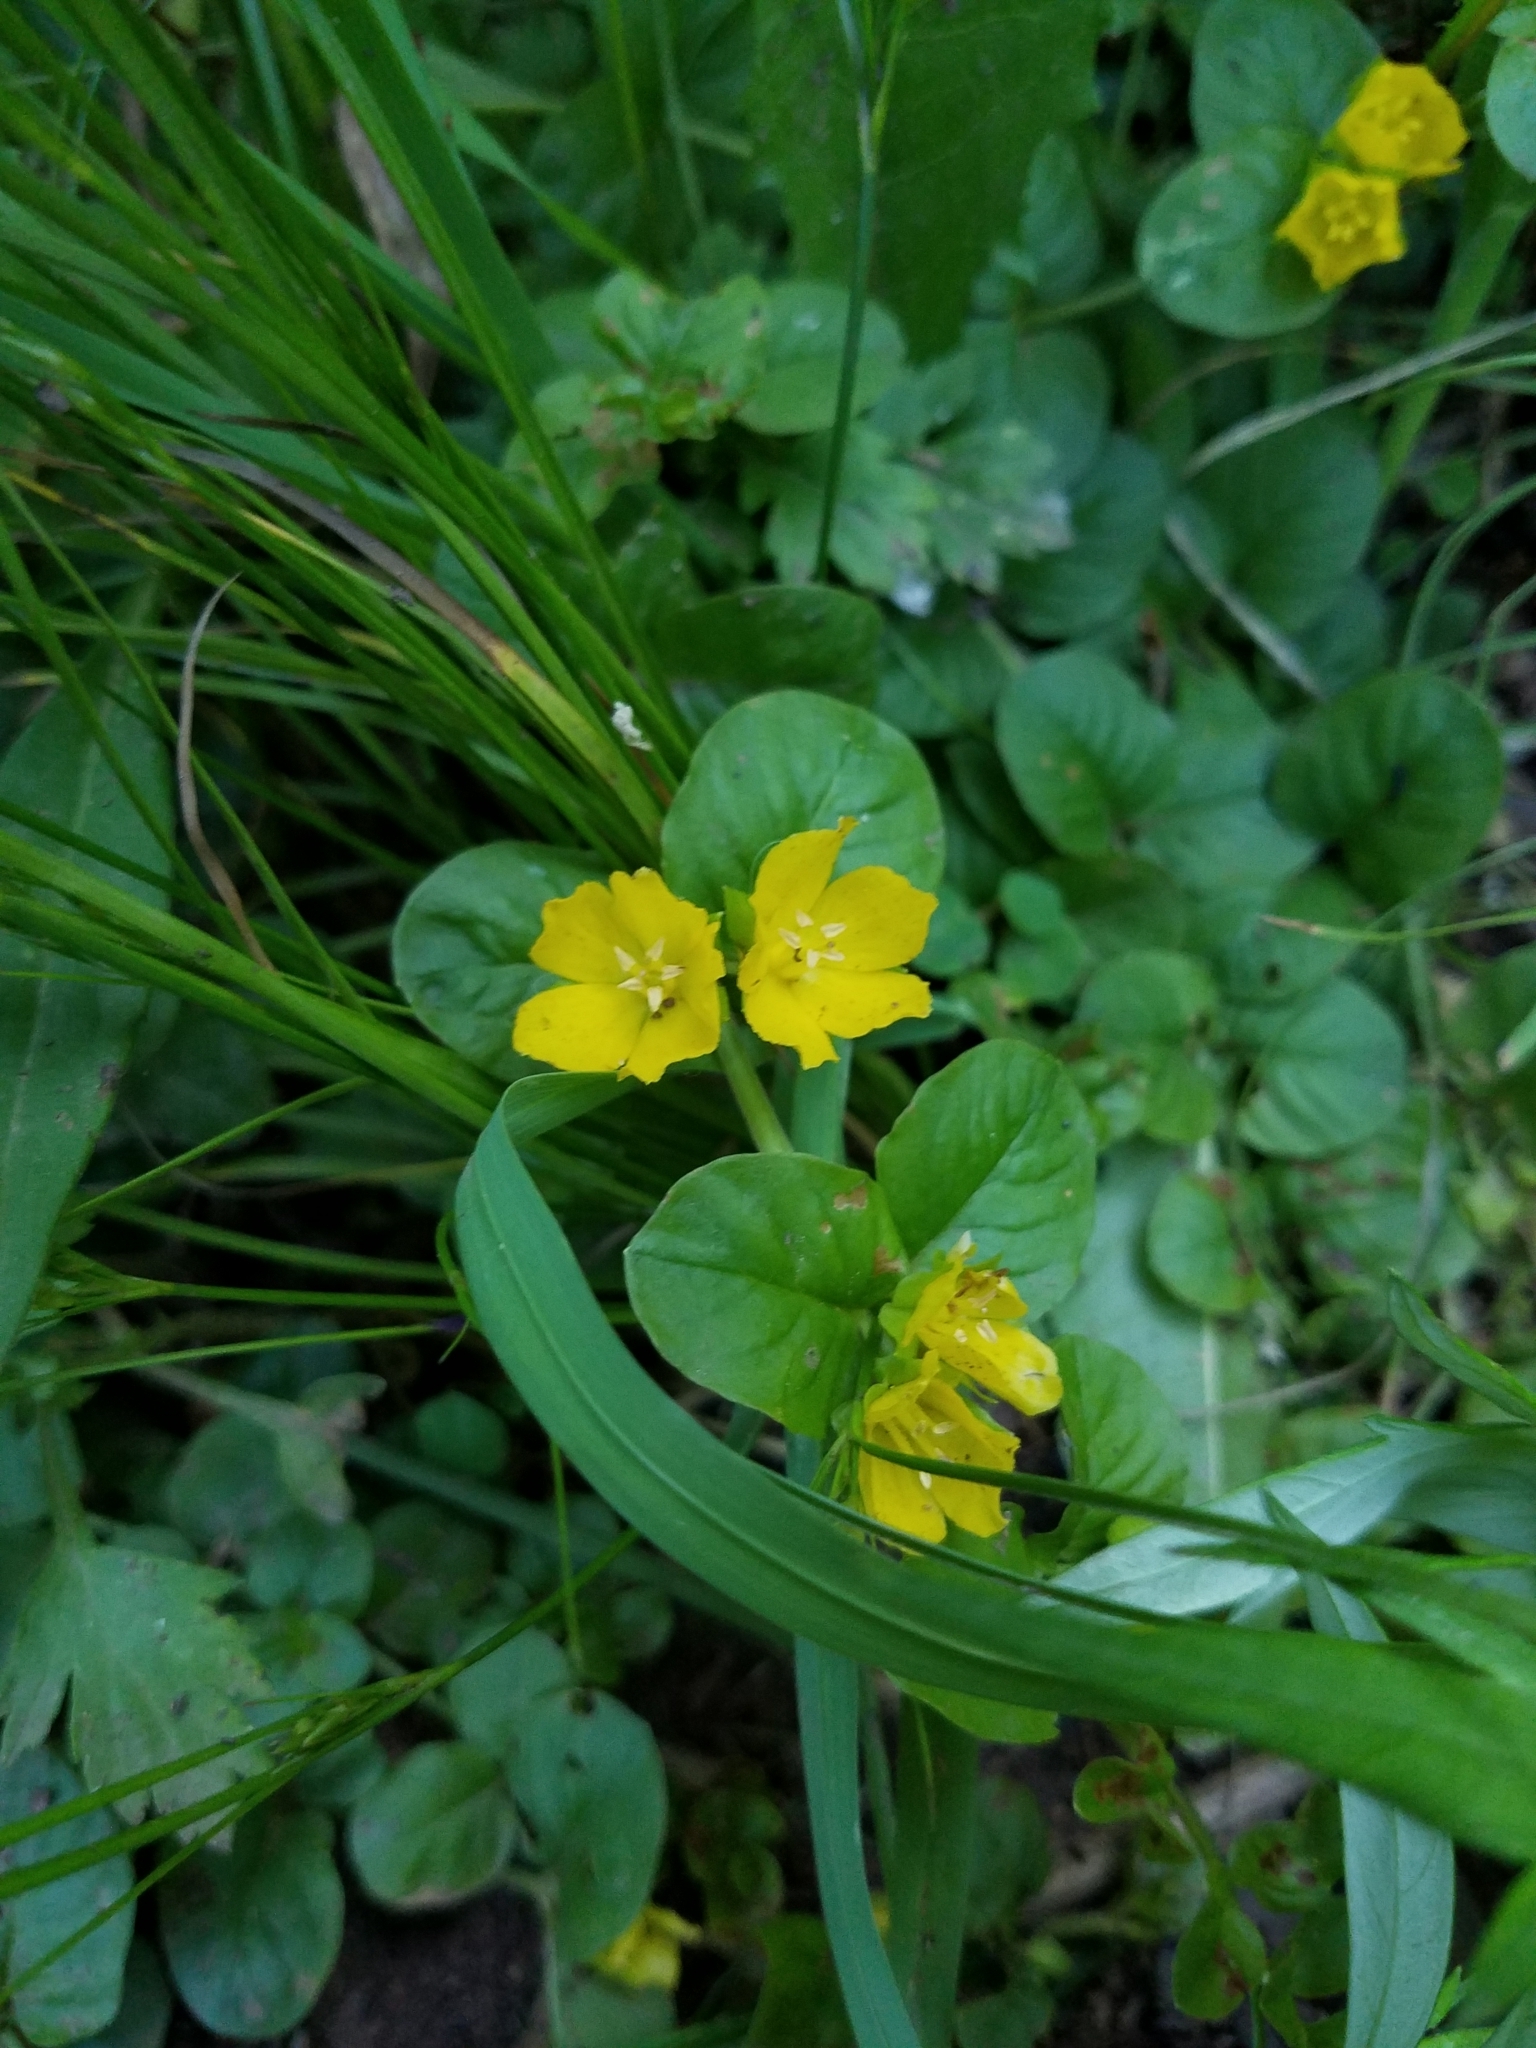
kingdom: Plantae
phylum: Tracheophyta
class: Magnoliopsida
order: Ericales
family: Primulaceae
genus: Lysimachia
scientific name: Lysimachia nummularia
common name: Moneywort
